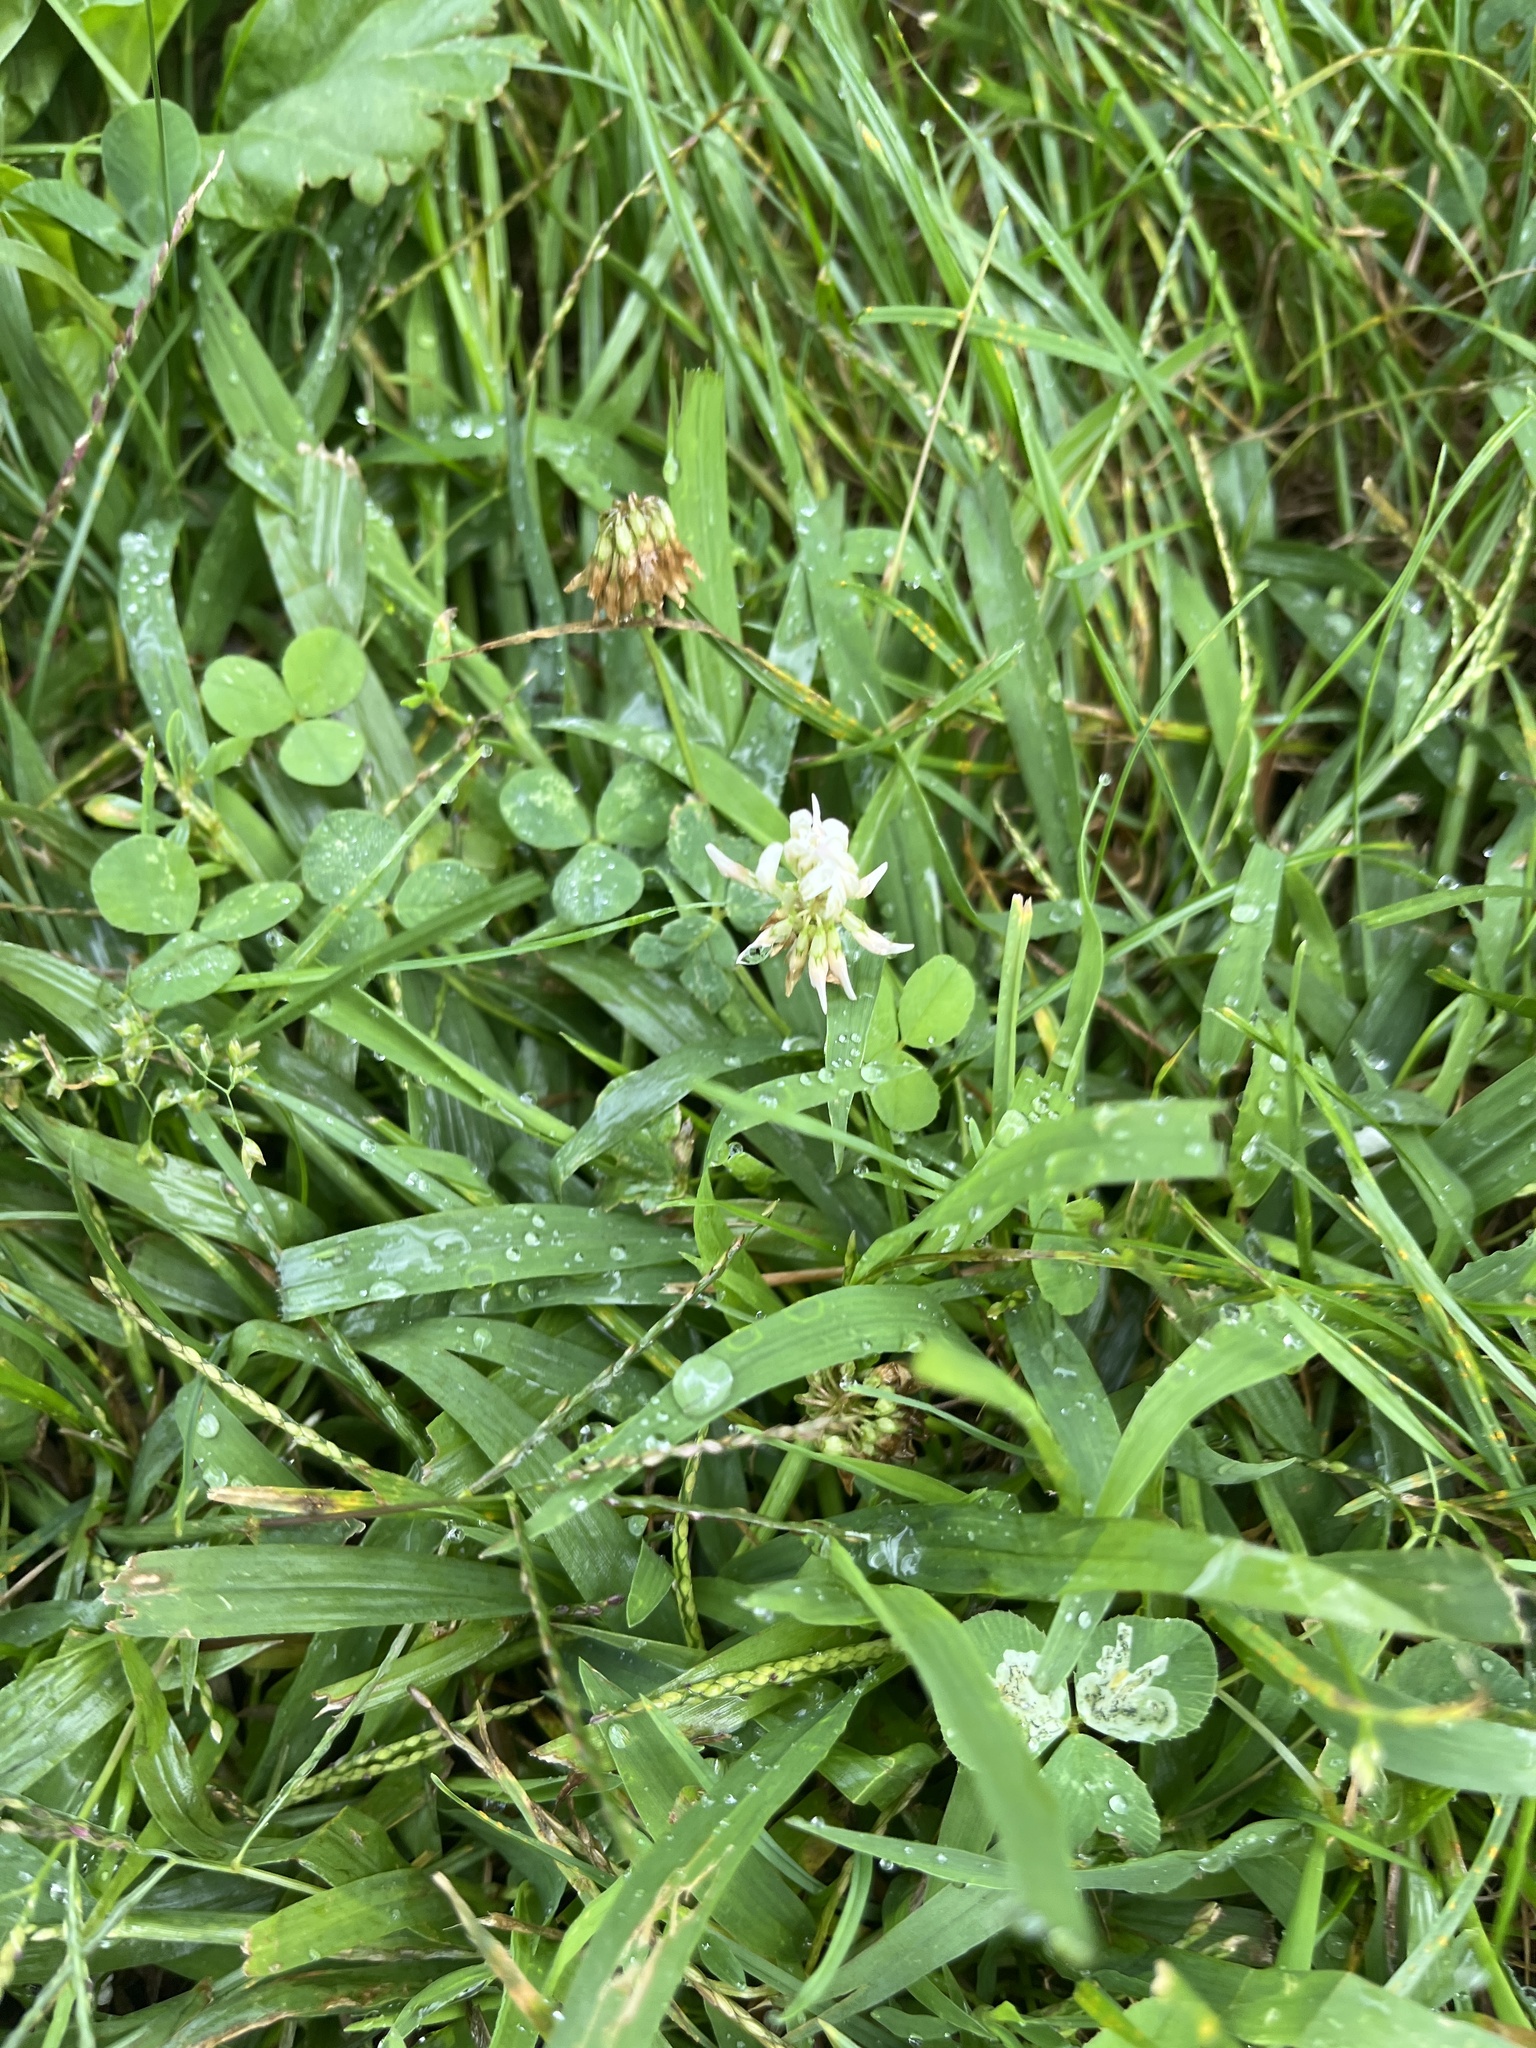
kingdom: Plantae
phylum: Tracheophyta
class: Magnoliopsida
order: Fabales
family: Fabaceae
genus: Trifolium
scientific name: Trifolium repens
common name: White clover
